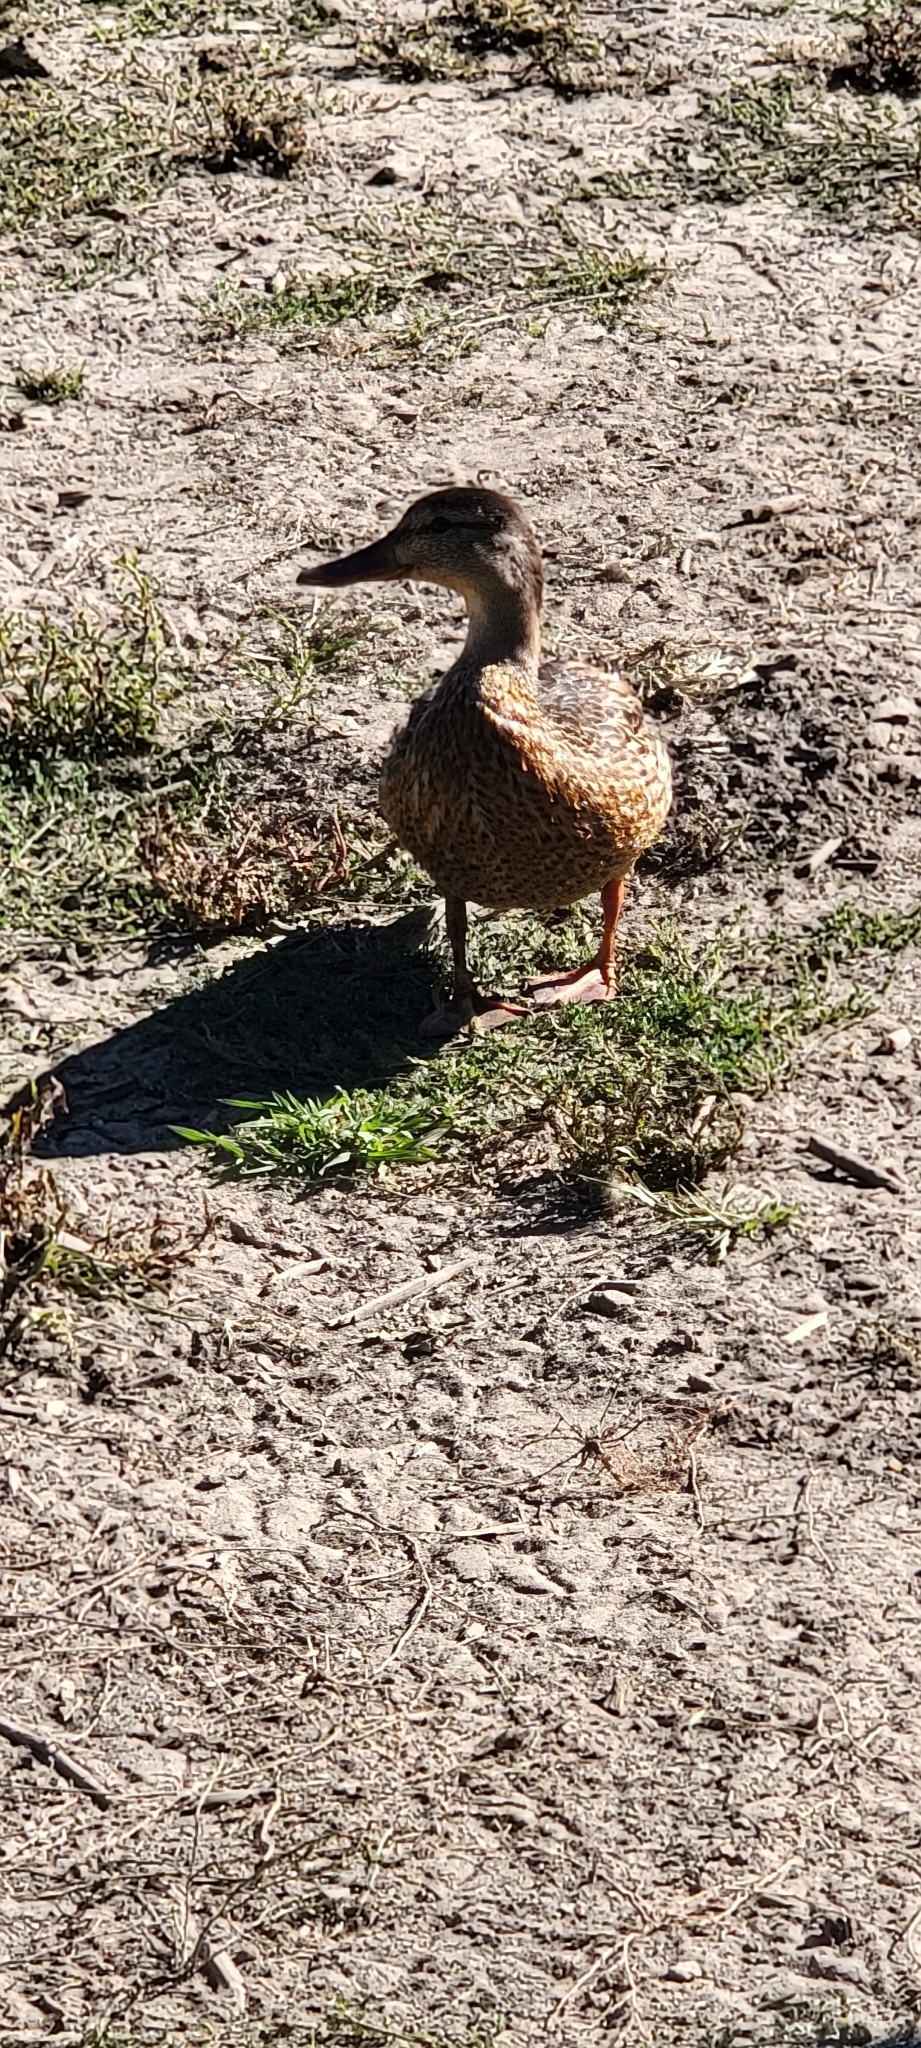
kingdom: Animalia
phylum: Chordata
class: Aves
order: Anseriformes
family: Anatidae
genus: Anas
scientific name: Anas platyrhynchos
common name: Mallard
